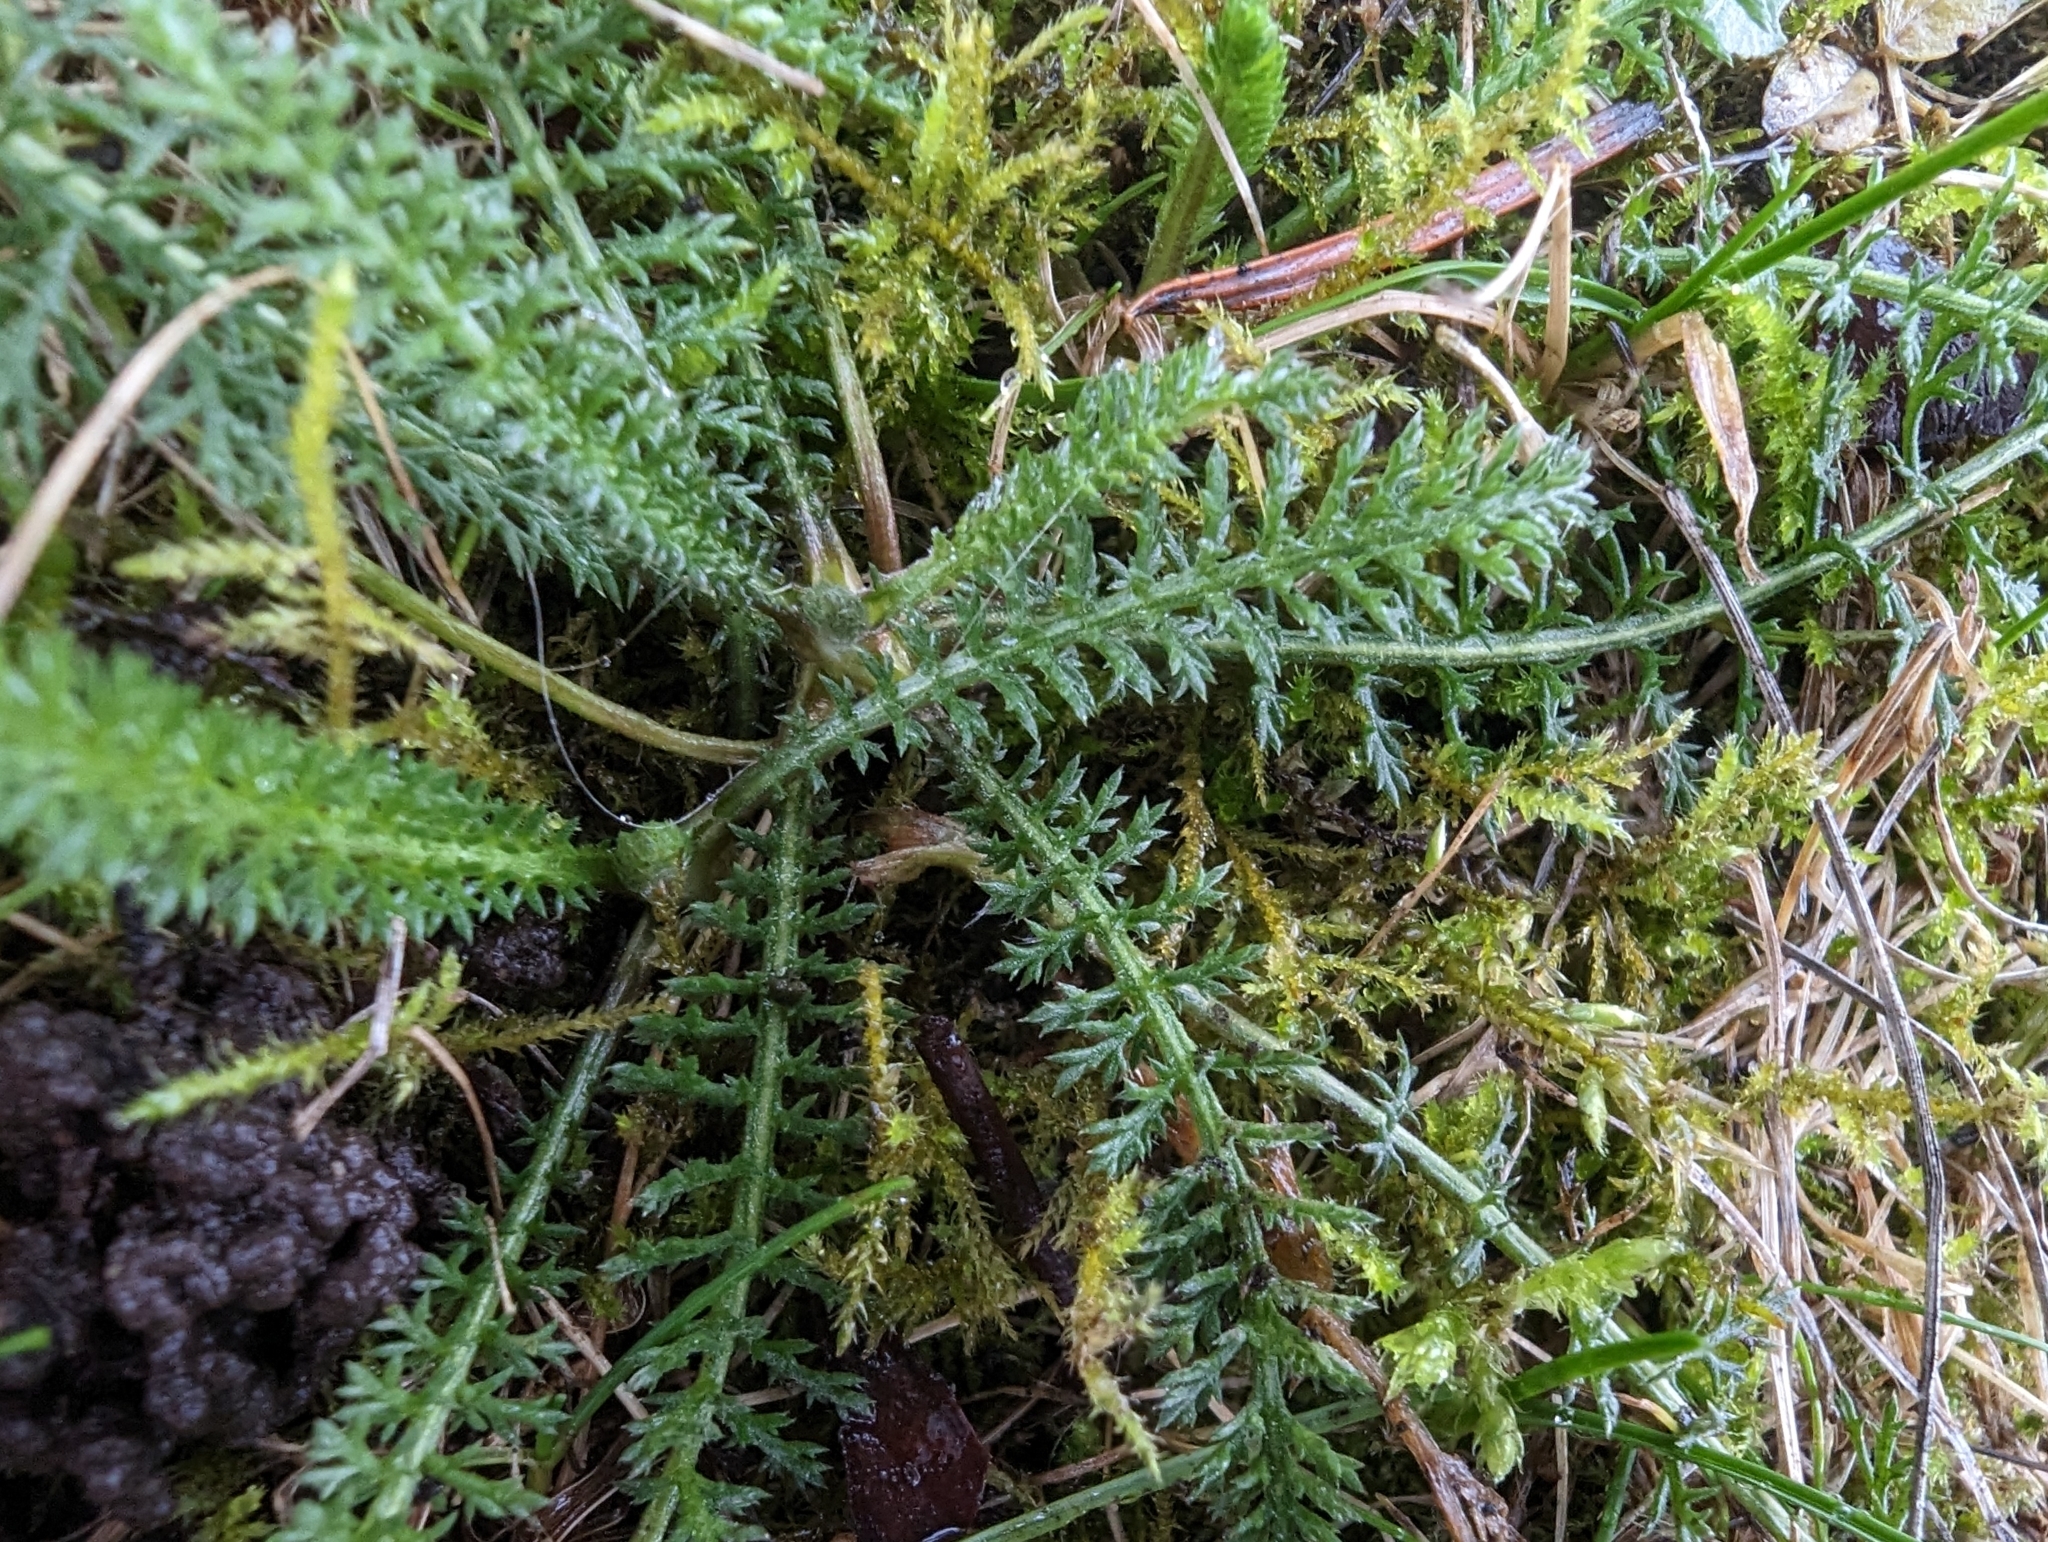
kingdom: Plantae
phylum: Tracheophyta
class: Magnoliopsida
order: Asterales
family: Asteraceae
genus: Achillea
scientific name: Achillea millefolium
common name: Yarrow
